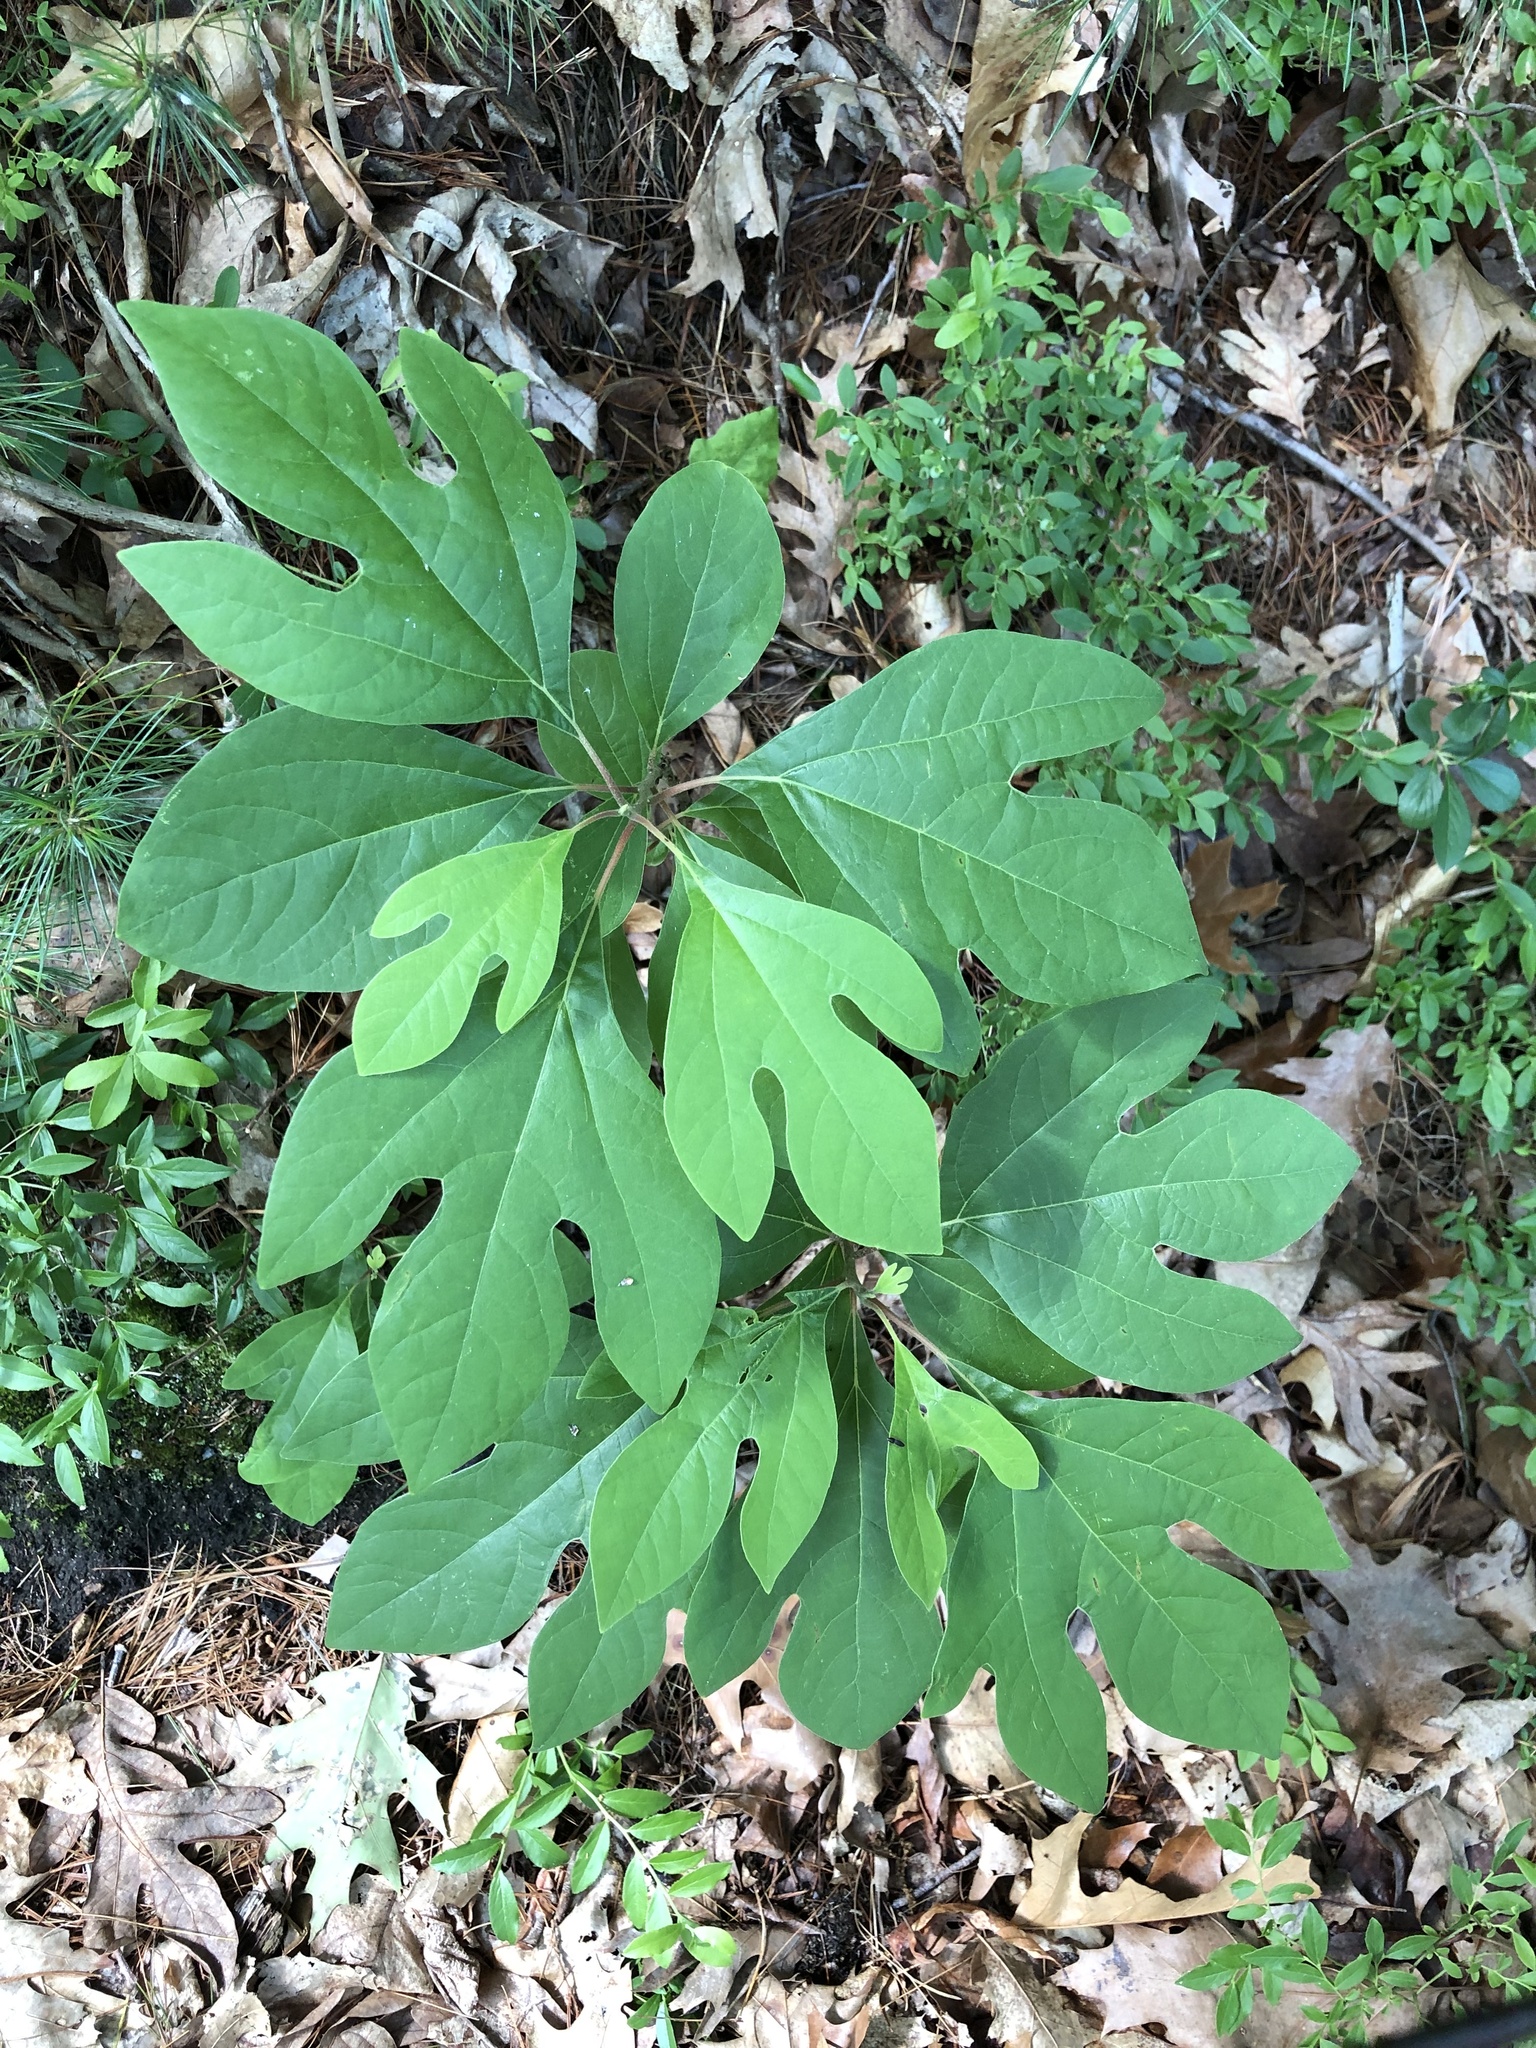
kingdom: Plantae
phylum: Tracheophyta
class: Magnoliopsida
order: Laurales
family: Lauraceae
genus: Sassafras
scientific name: Sassafras albidum
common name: Sassafras
